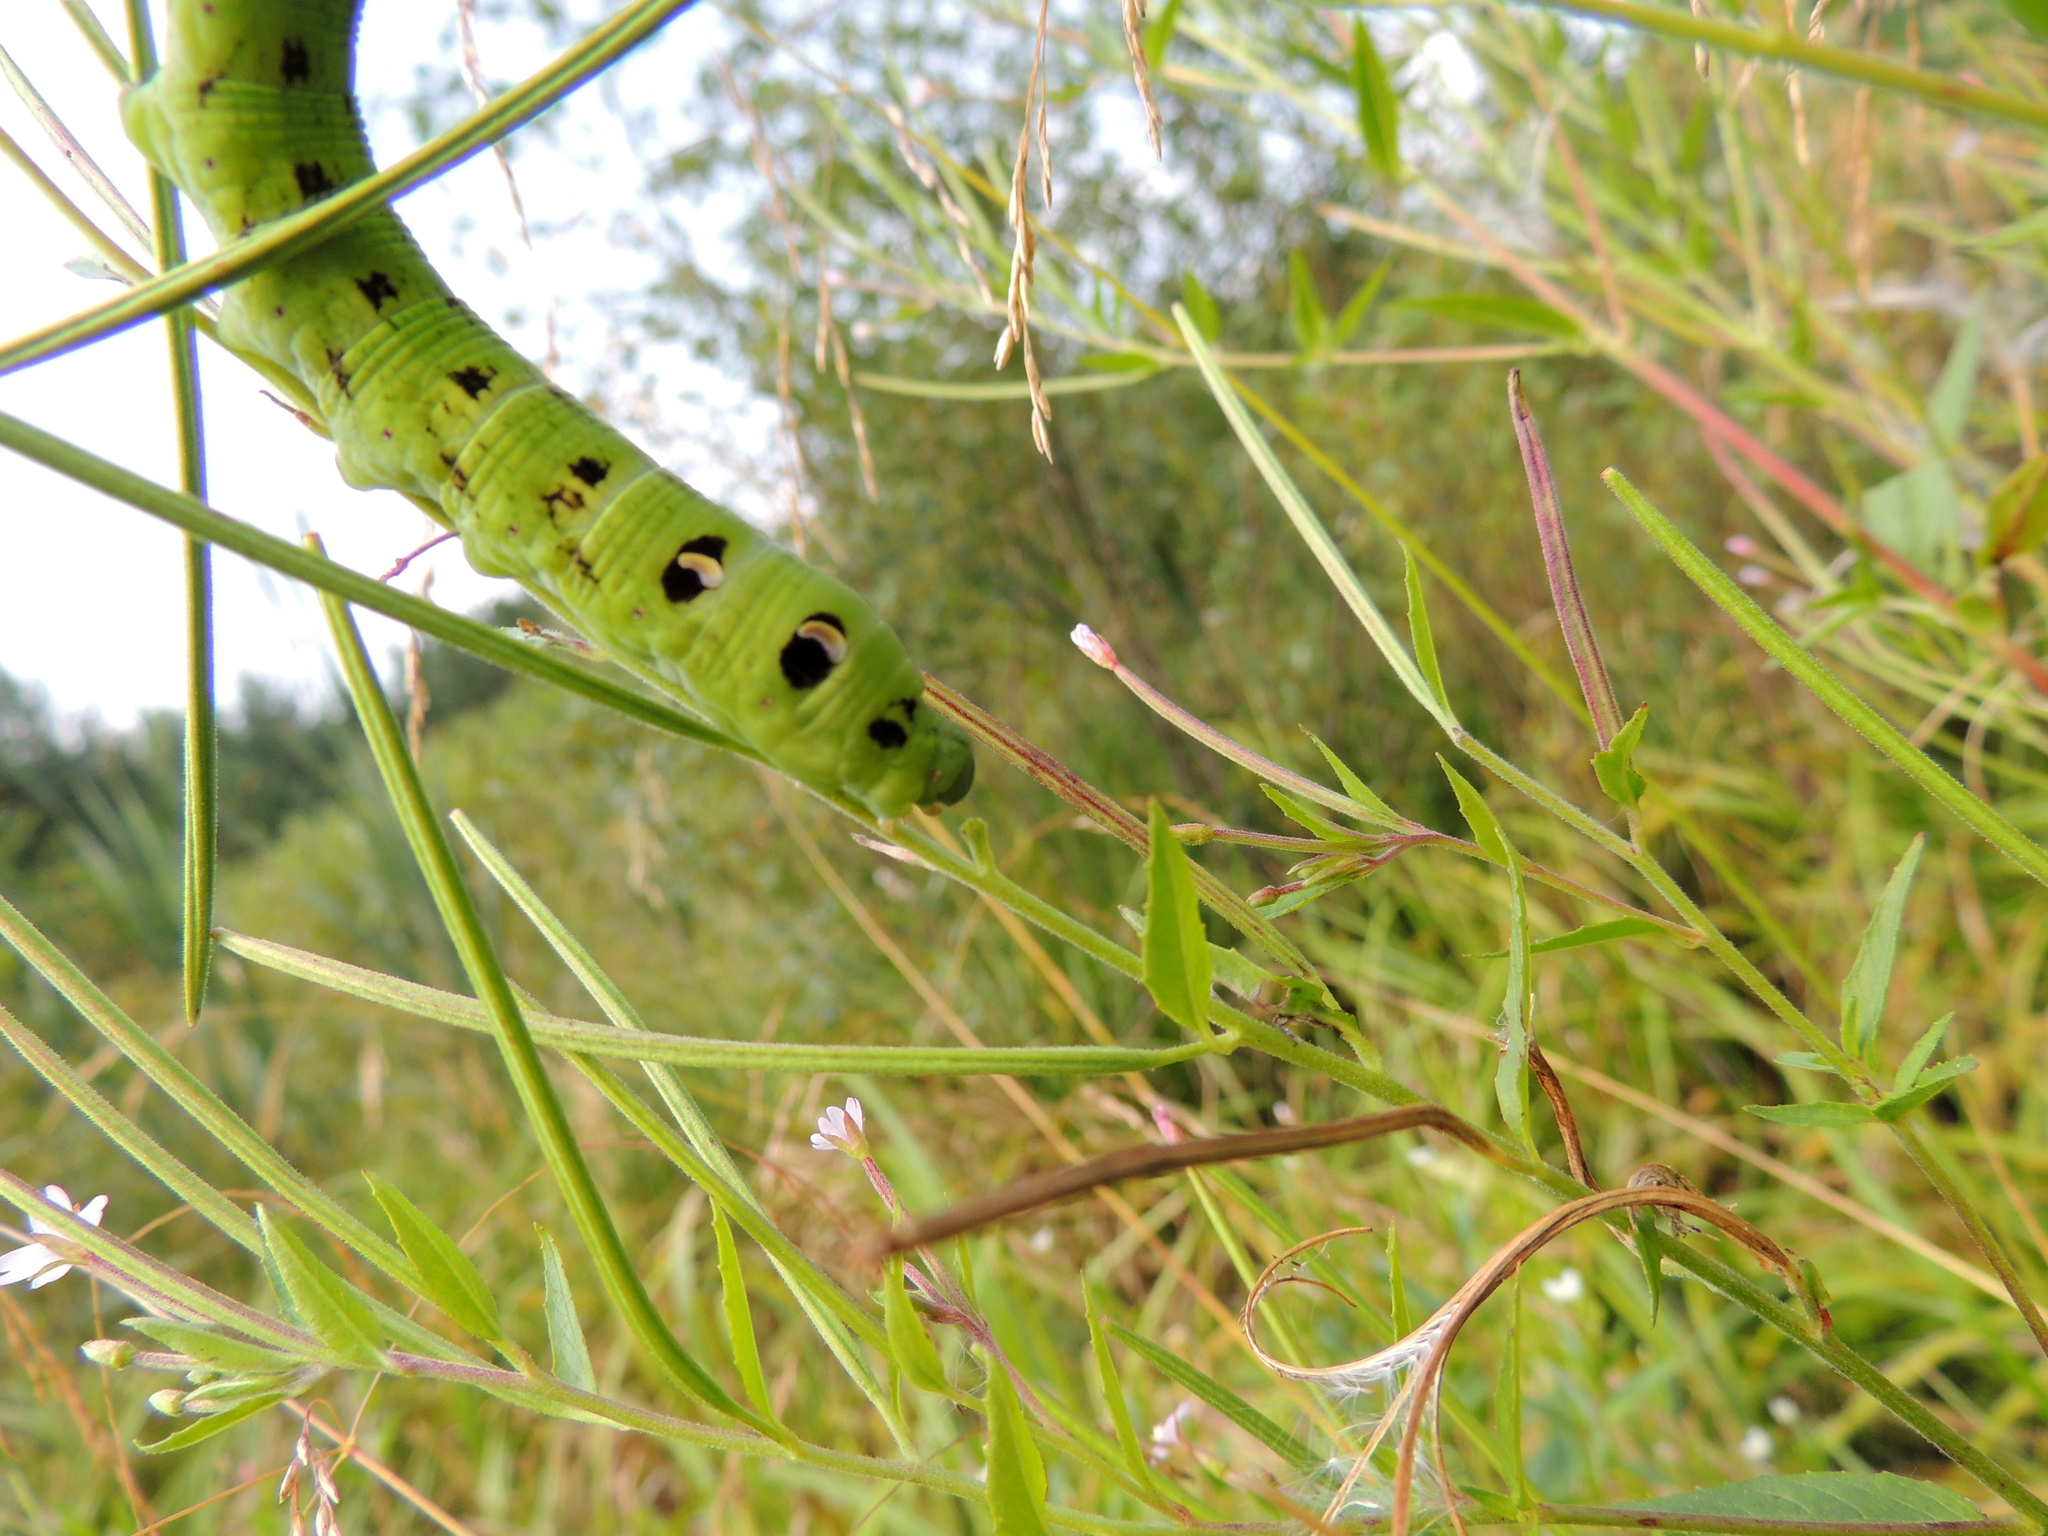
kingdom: Animalia
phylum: Arthropoda
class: Insecta
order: Lepidoptera
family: Sphingidae
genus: Deilephila
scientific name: Deilephila elpenor
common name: Elephant hawk-moth
